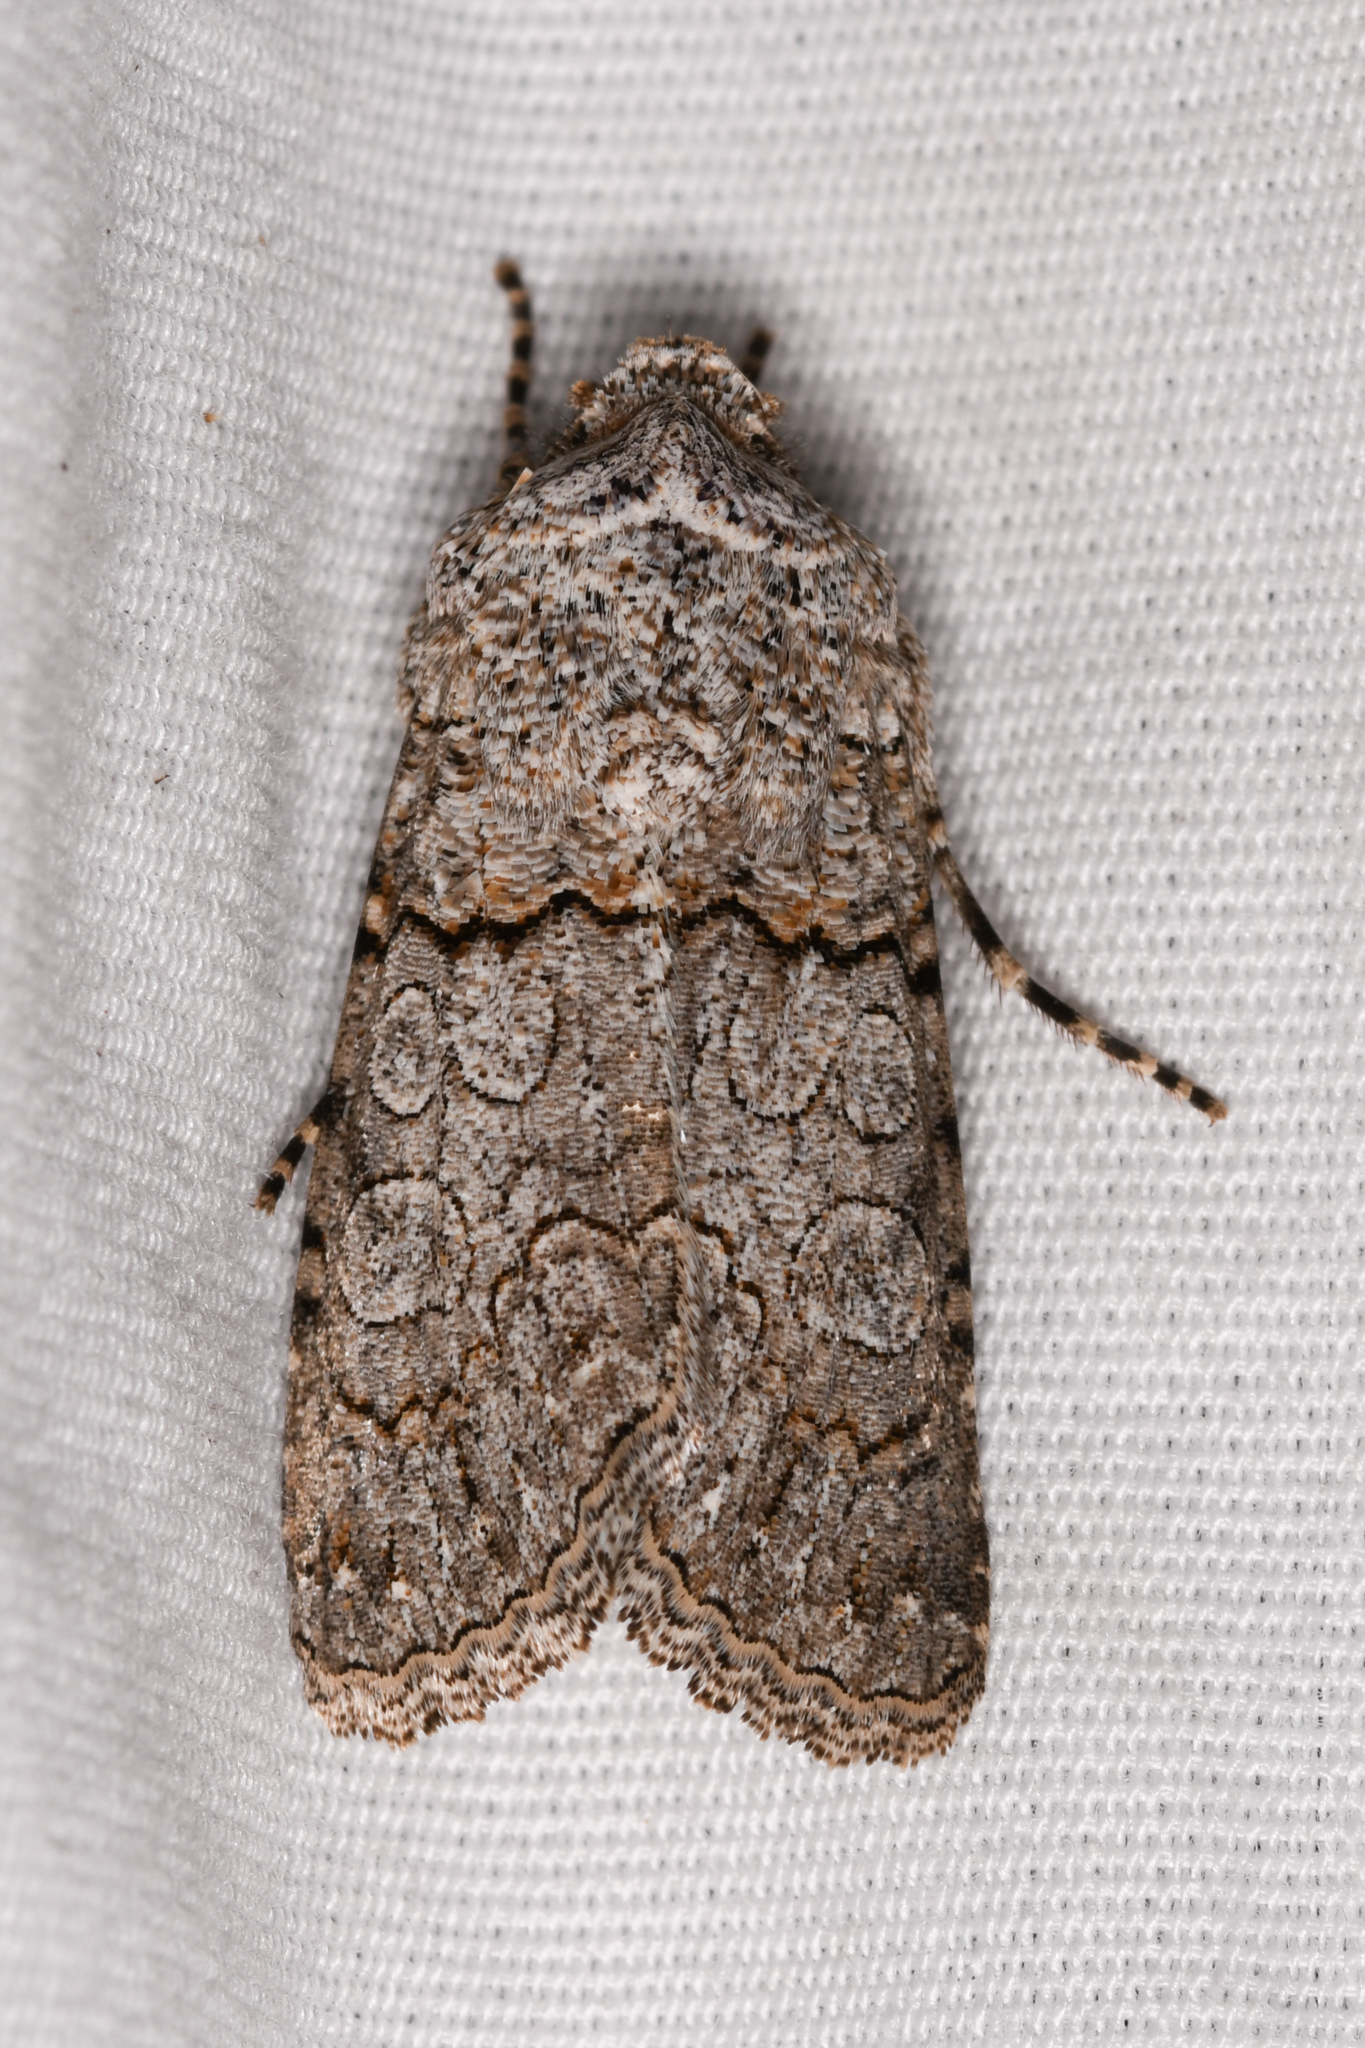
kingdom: Animalia
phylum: Arthropoda
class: Insecta
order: Lepidoptera
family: Noctuidae
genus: Sympistis
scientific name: Sympistis perscripta
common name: Scribbled sallow
